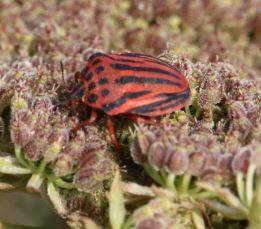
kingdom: Animalia
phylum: Arthropoda
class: Insecta
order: Hemiptera
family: Pentatomidae
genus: Graphosoma
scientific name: Graphosoma semipunctatum
